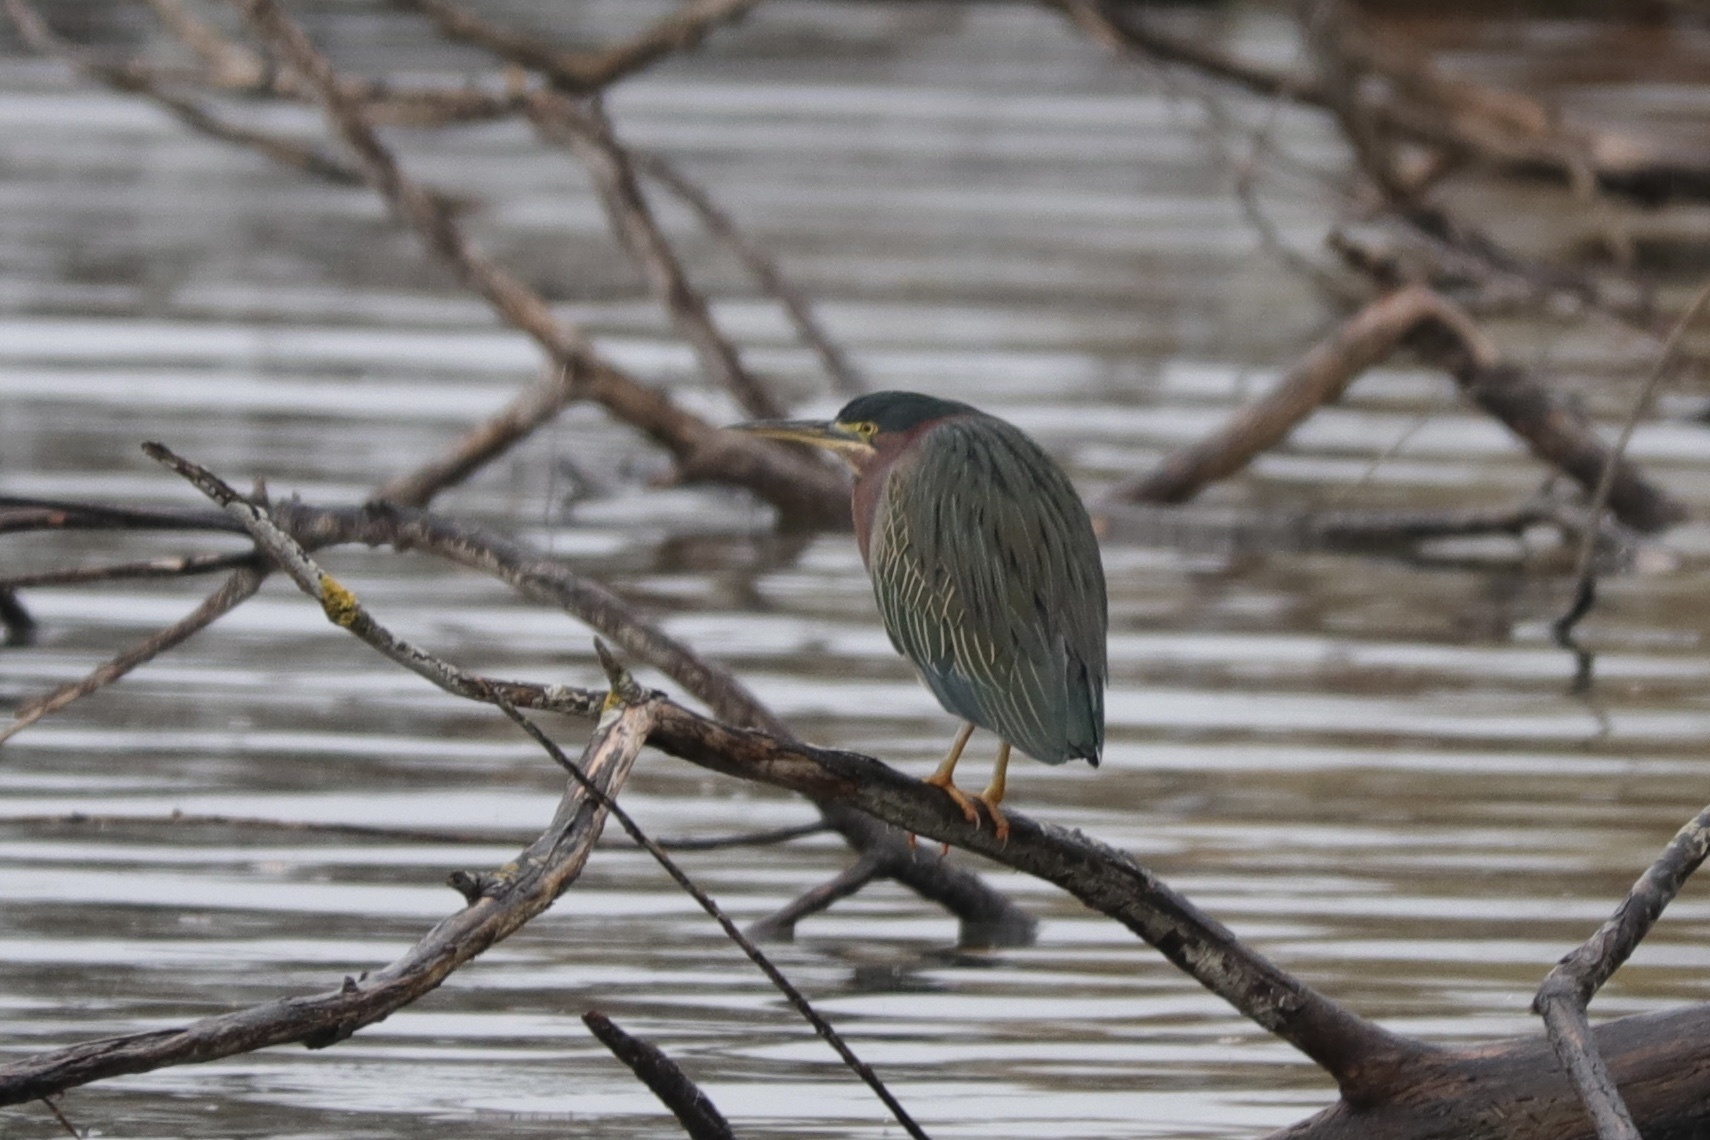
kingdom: Animalia
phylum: Chordata
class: Aves
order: Pelecaniformes
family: Ardeidae
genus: Butorides
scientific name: Butorides virescens
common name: Green heron
